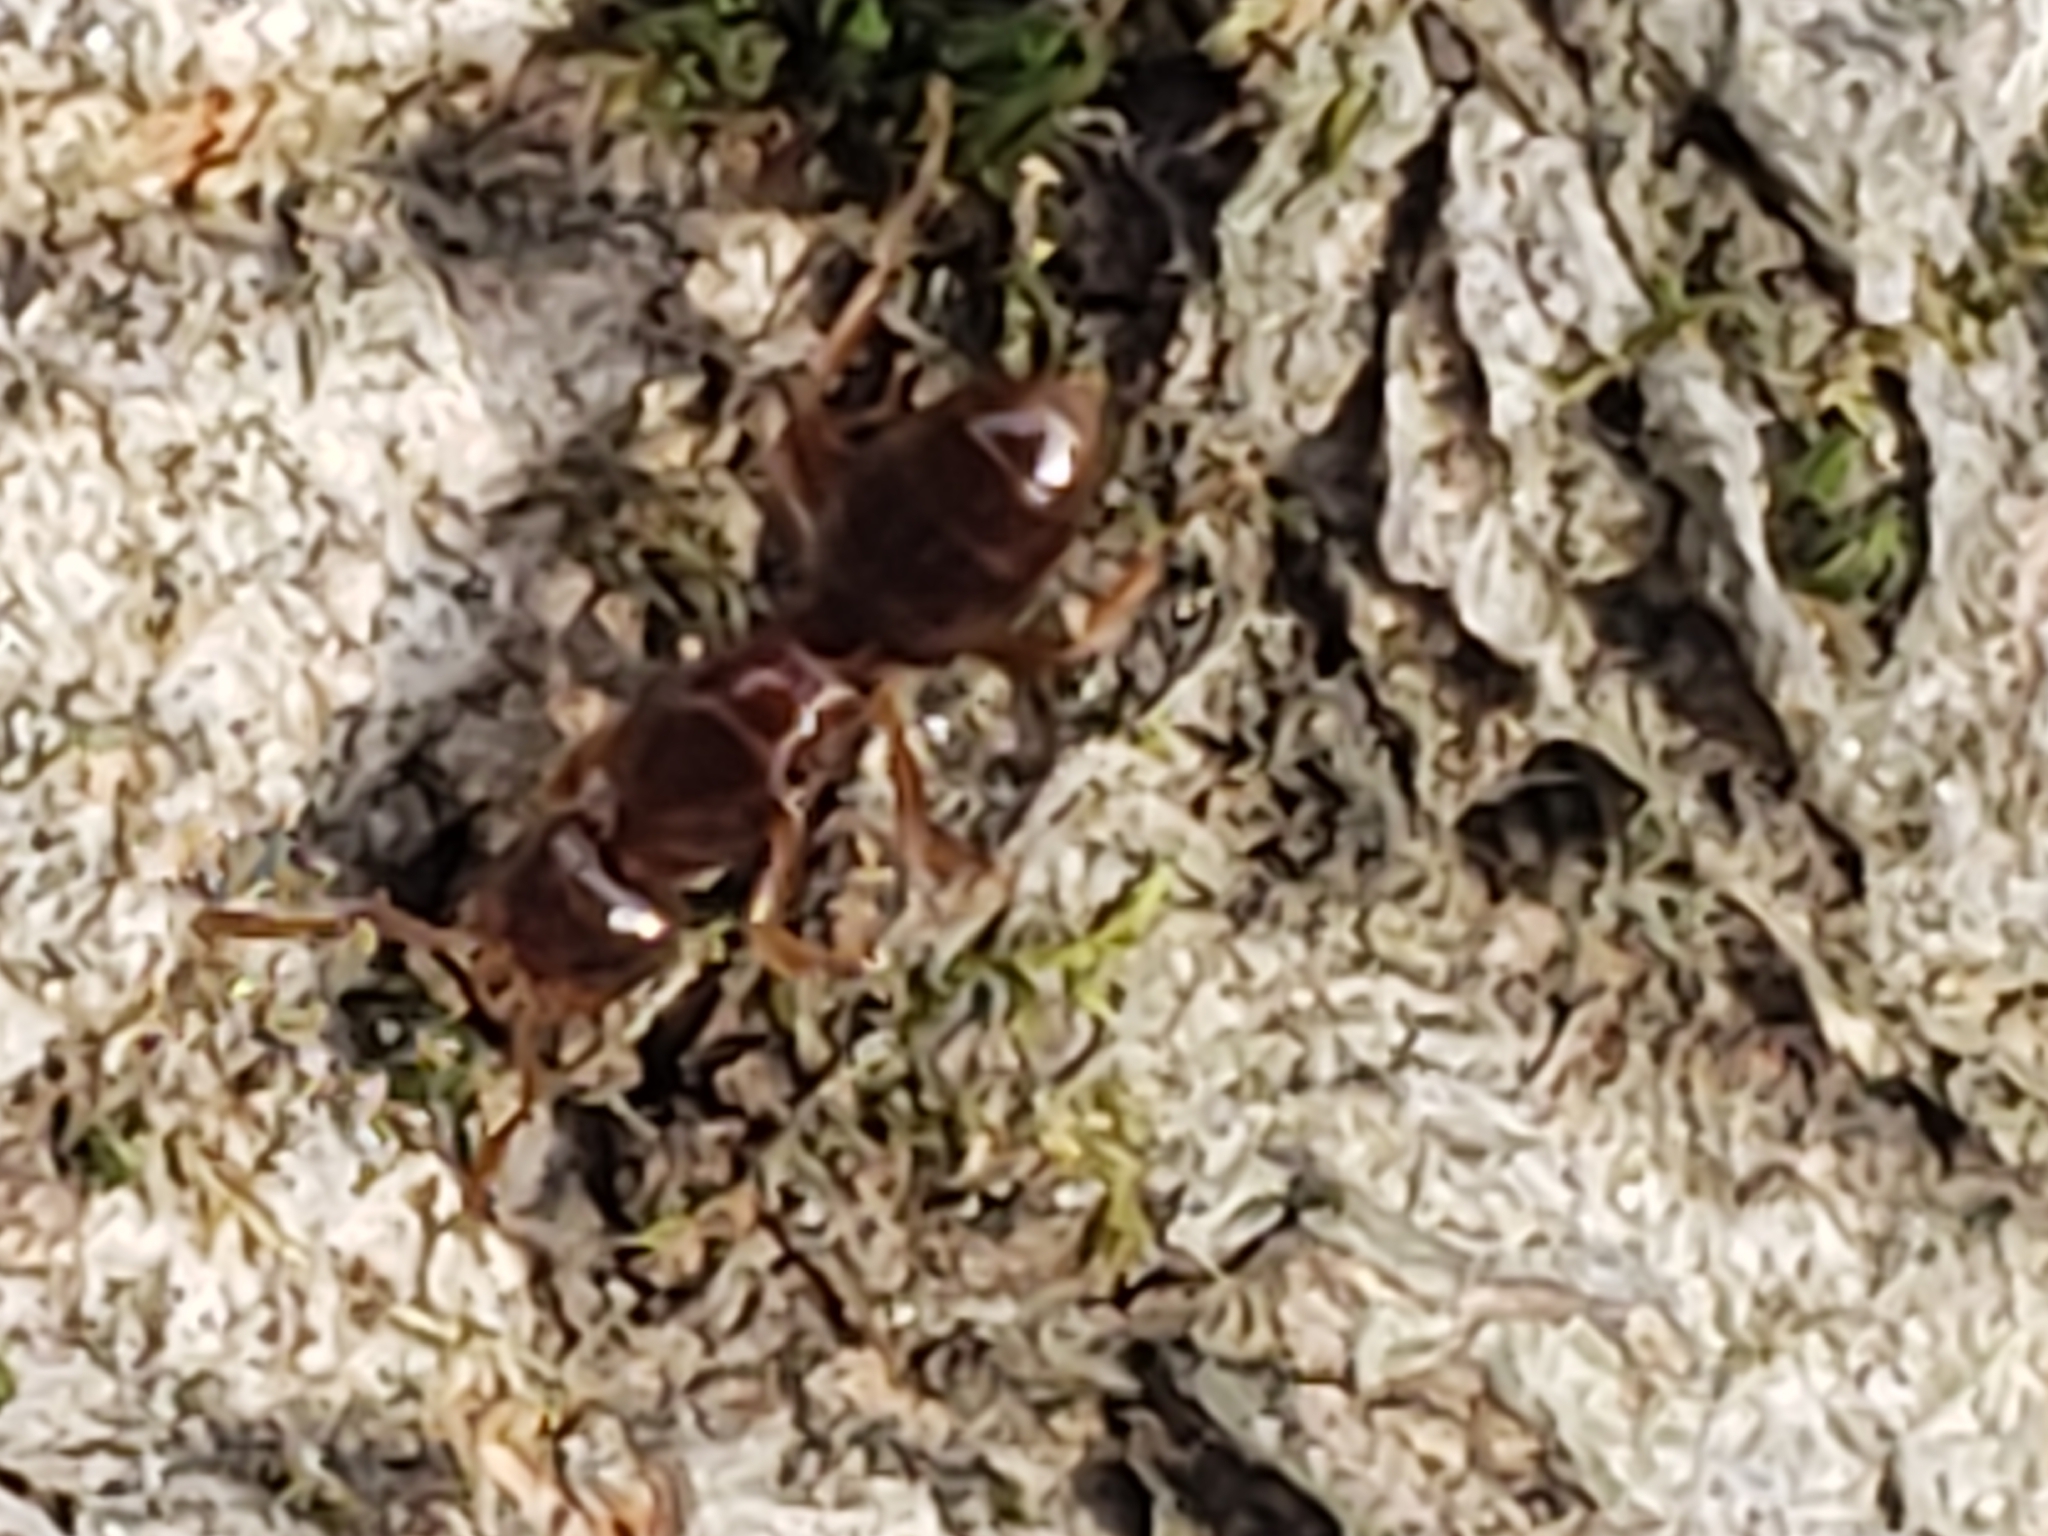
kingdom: Animalia
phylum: Arthropoda
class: Insecta
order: Hymenoptera
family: Formicidae
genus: Lasius
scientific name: Lasius claviger
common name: Common citronella ant
